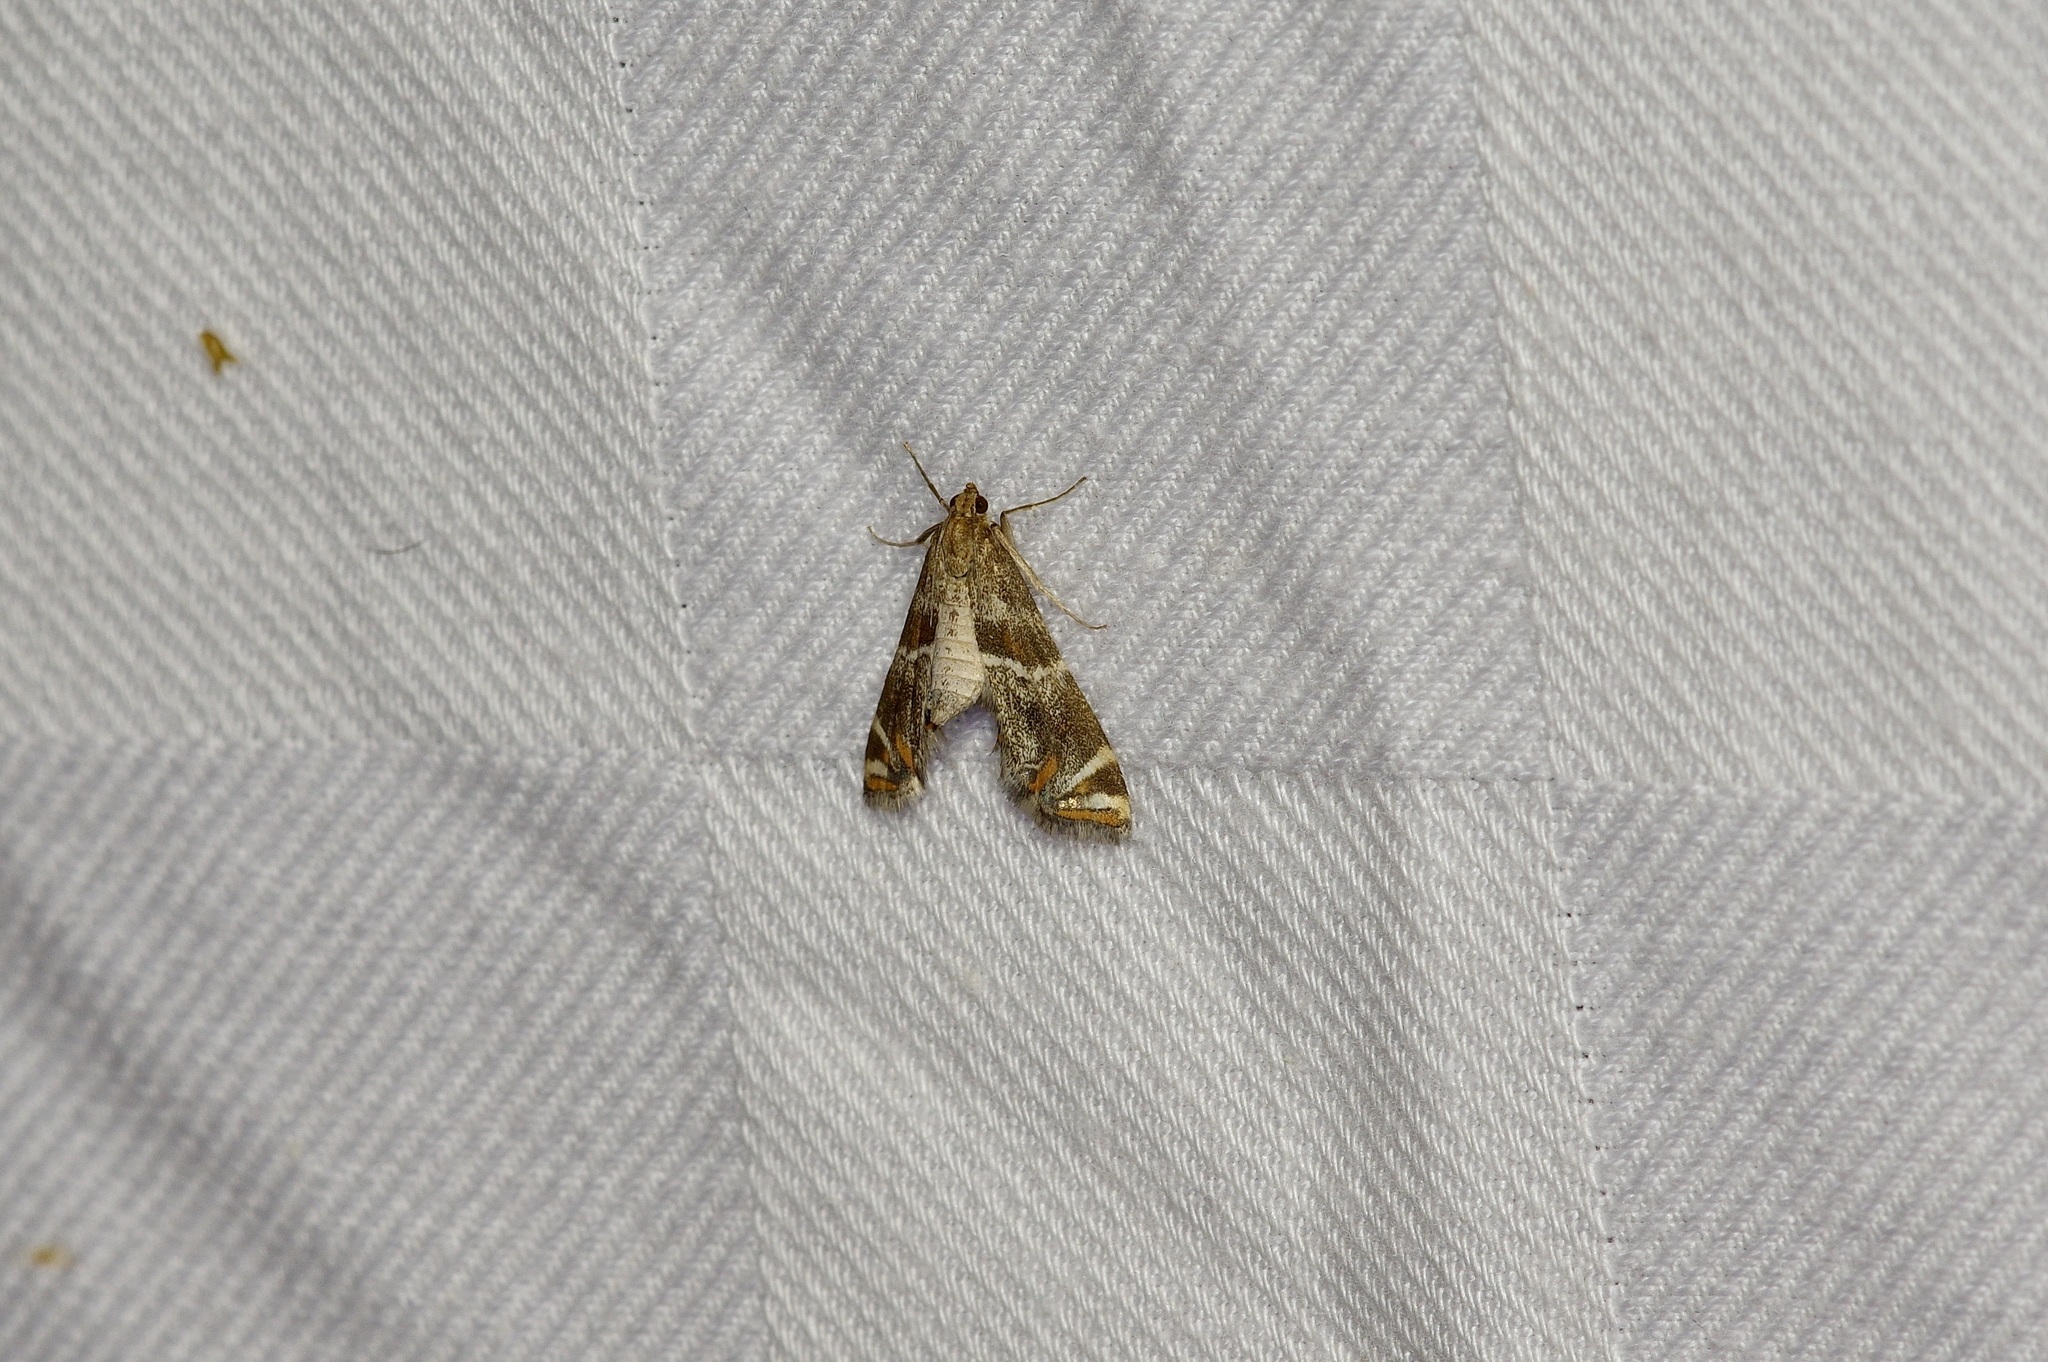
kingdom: Animalia
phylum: Arthropoda
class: Insecta
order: Lepidoptera
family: Crambidae
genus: Petrophila
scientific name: Petrophila jaliscalis
